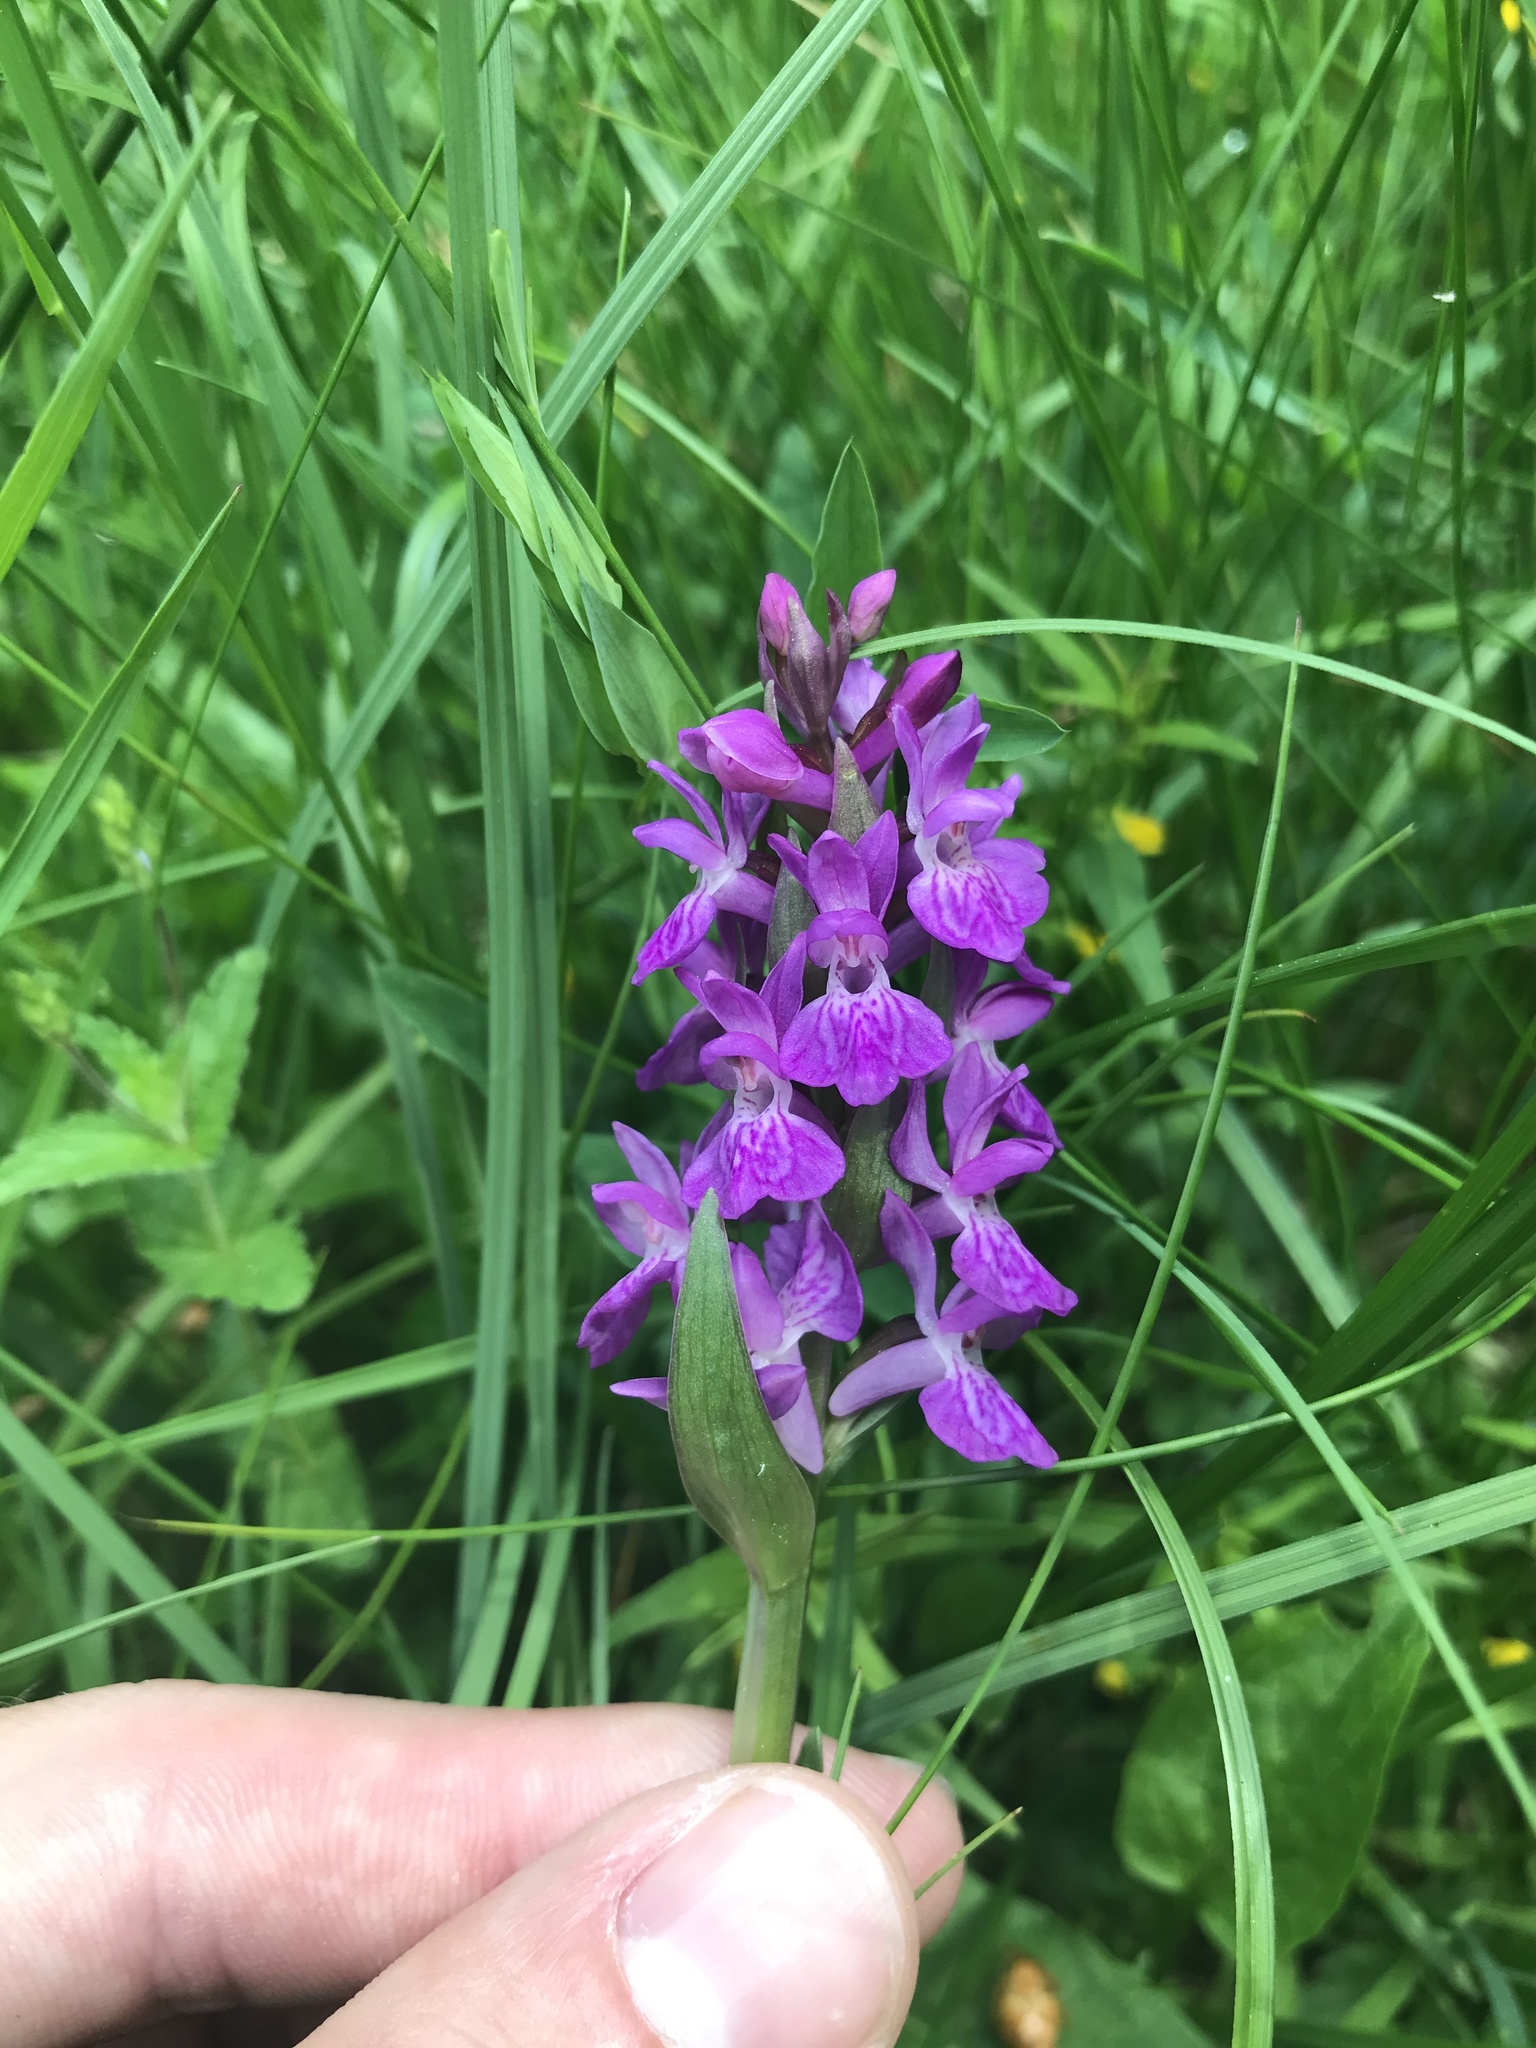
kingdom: Plantae
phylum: Tracheophyta
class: Liliopsida
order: Asparagales
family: Orchidaceae
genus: Dactylorhiza
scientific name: Dactylorhiza majalis
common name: Marsh orchid
